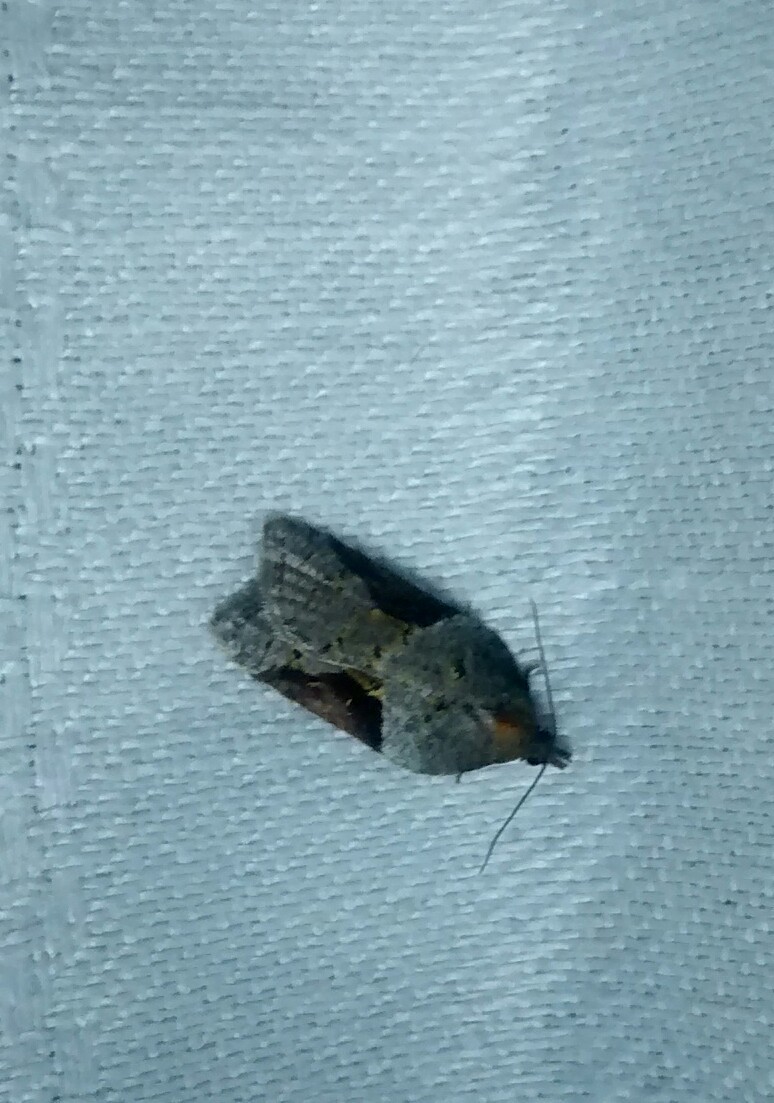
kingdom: Animalia
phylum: Arthropoda
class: Insecta
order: Lepidoptera
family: Tortricidae
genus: Acleris
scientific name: Acleris macdunnoughi
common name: Macdunnough's acleris
